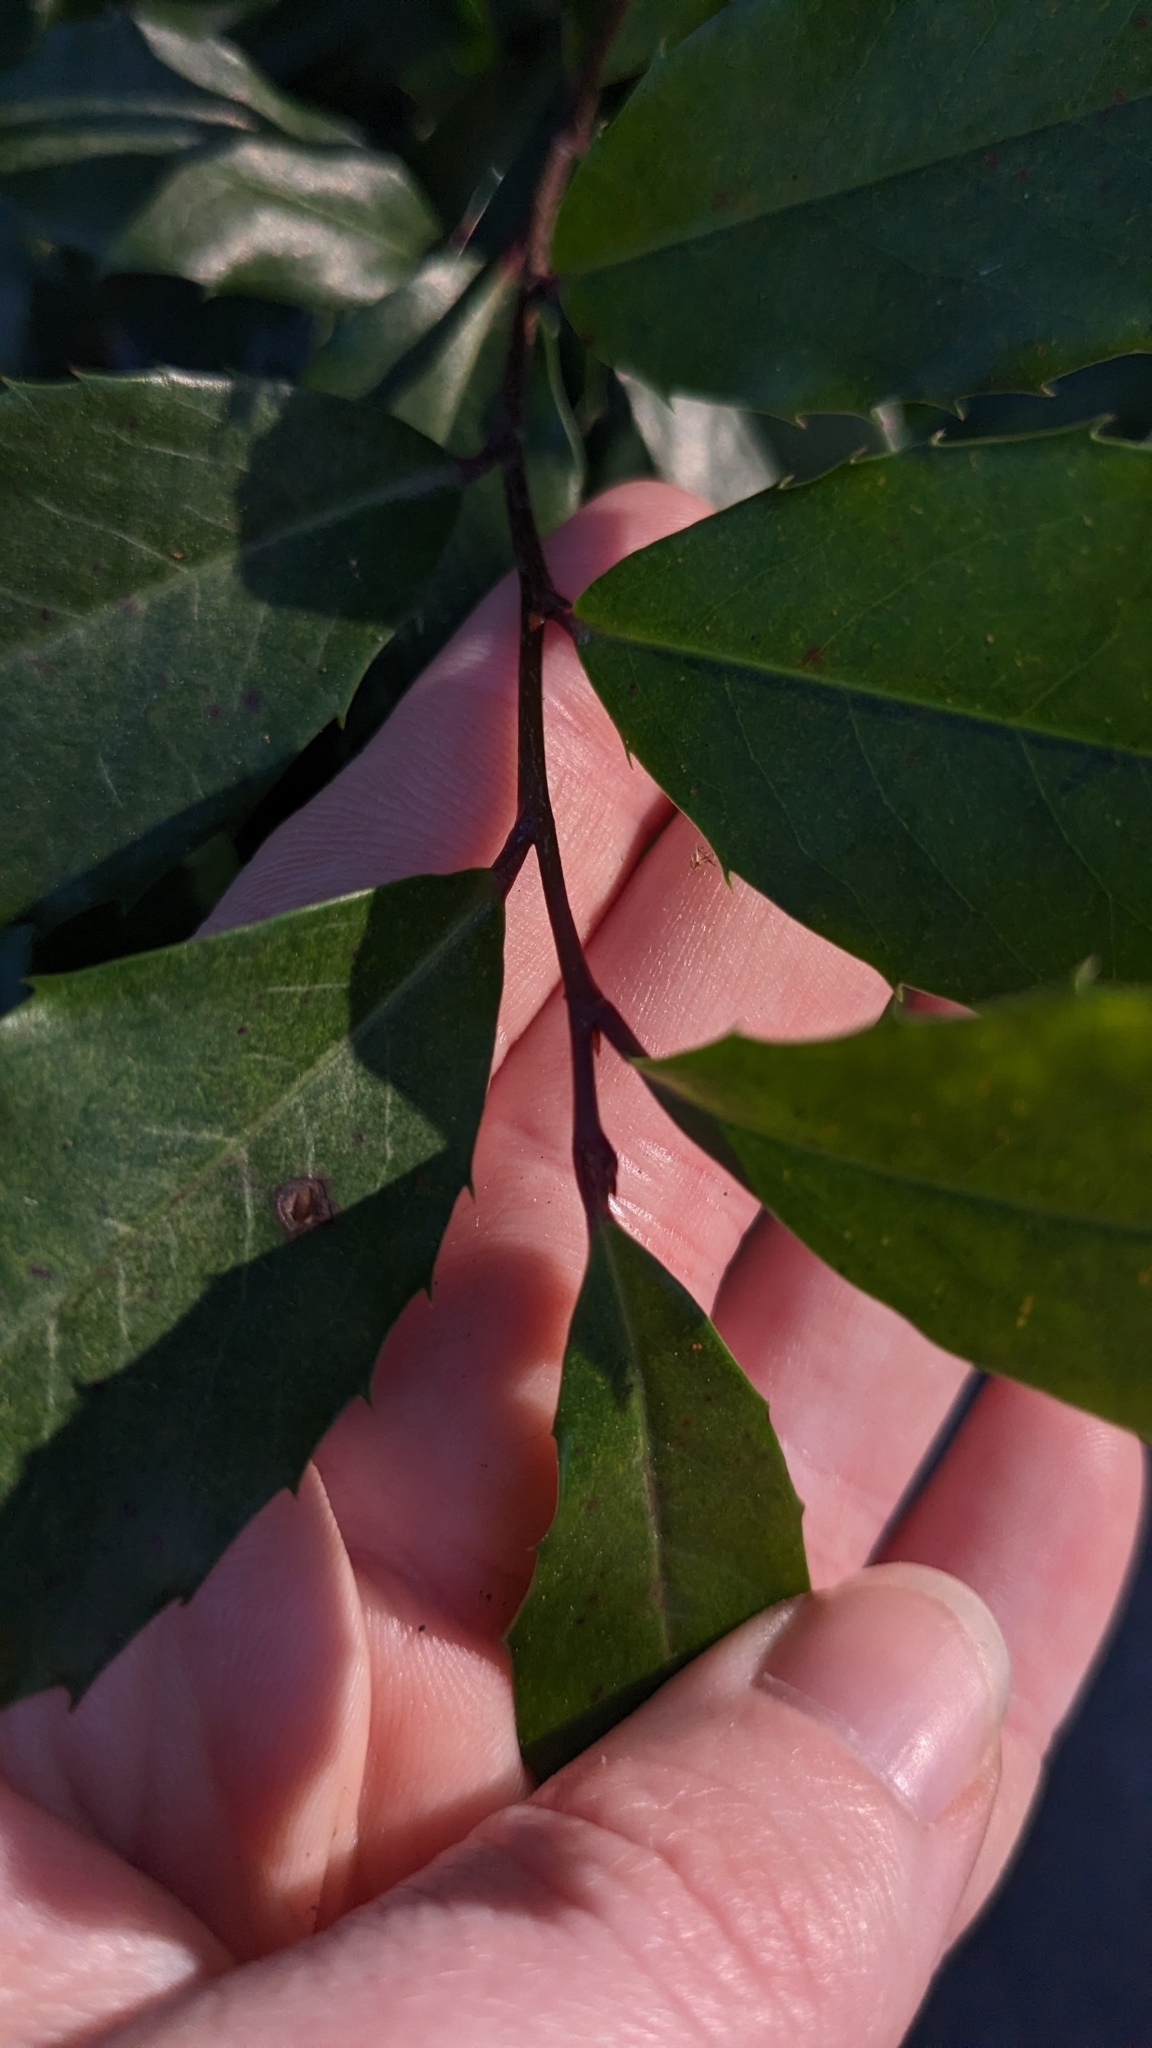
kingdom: Plantae
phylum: Tracheophyta
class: Magnoliopsida
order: Rosales
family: Rosaceae
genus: Prunus
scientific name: Prunus caroliniana
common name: Carolina laurel cherry
